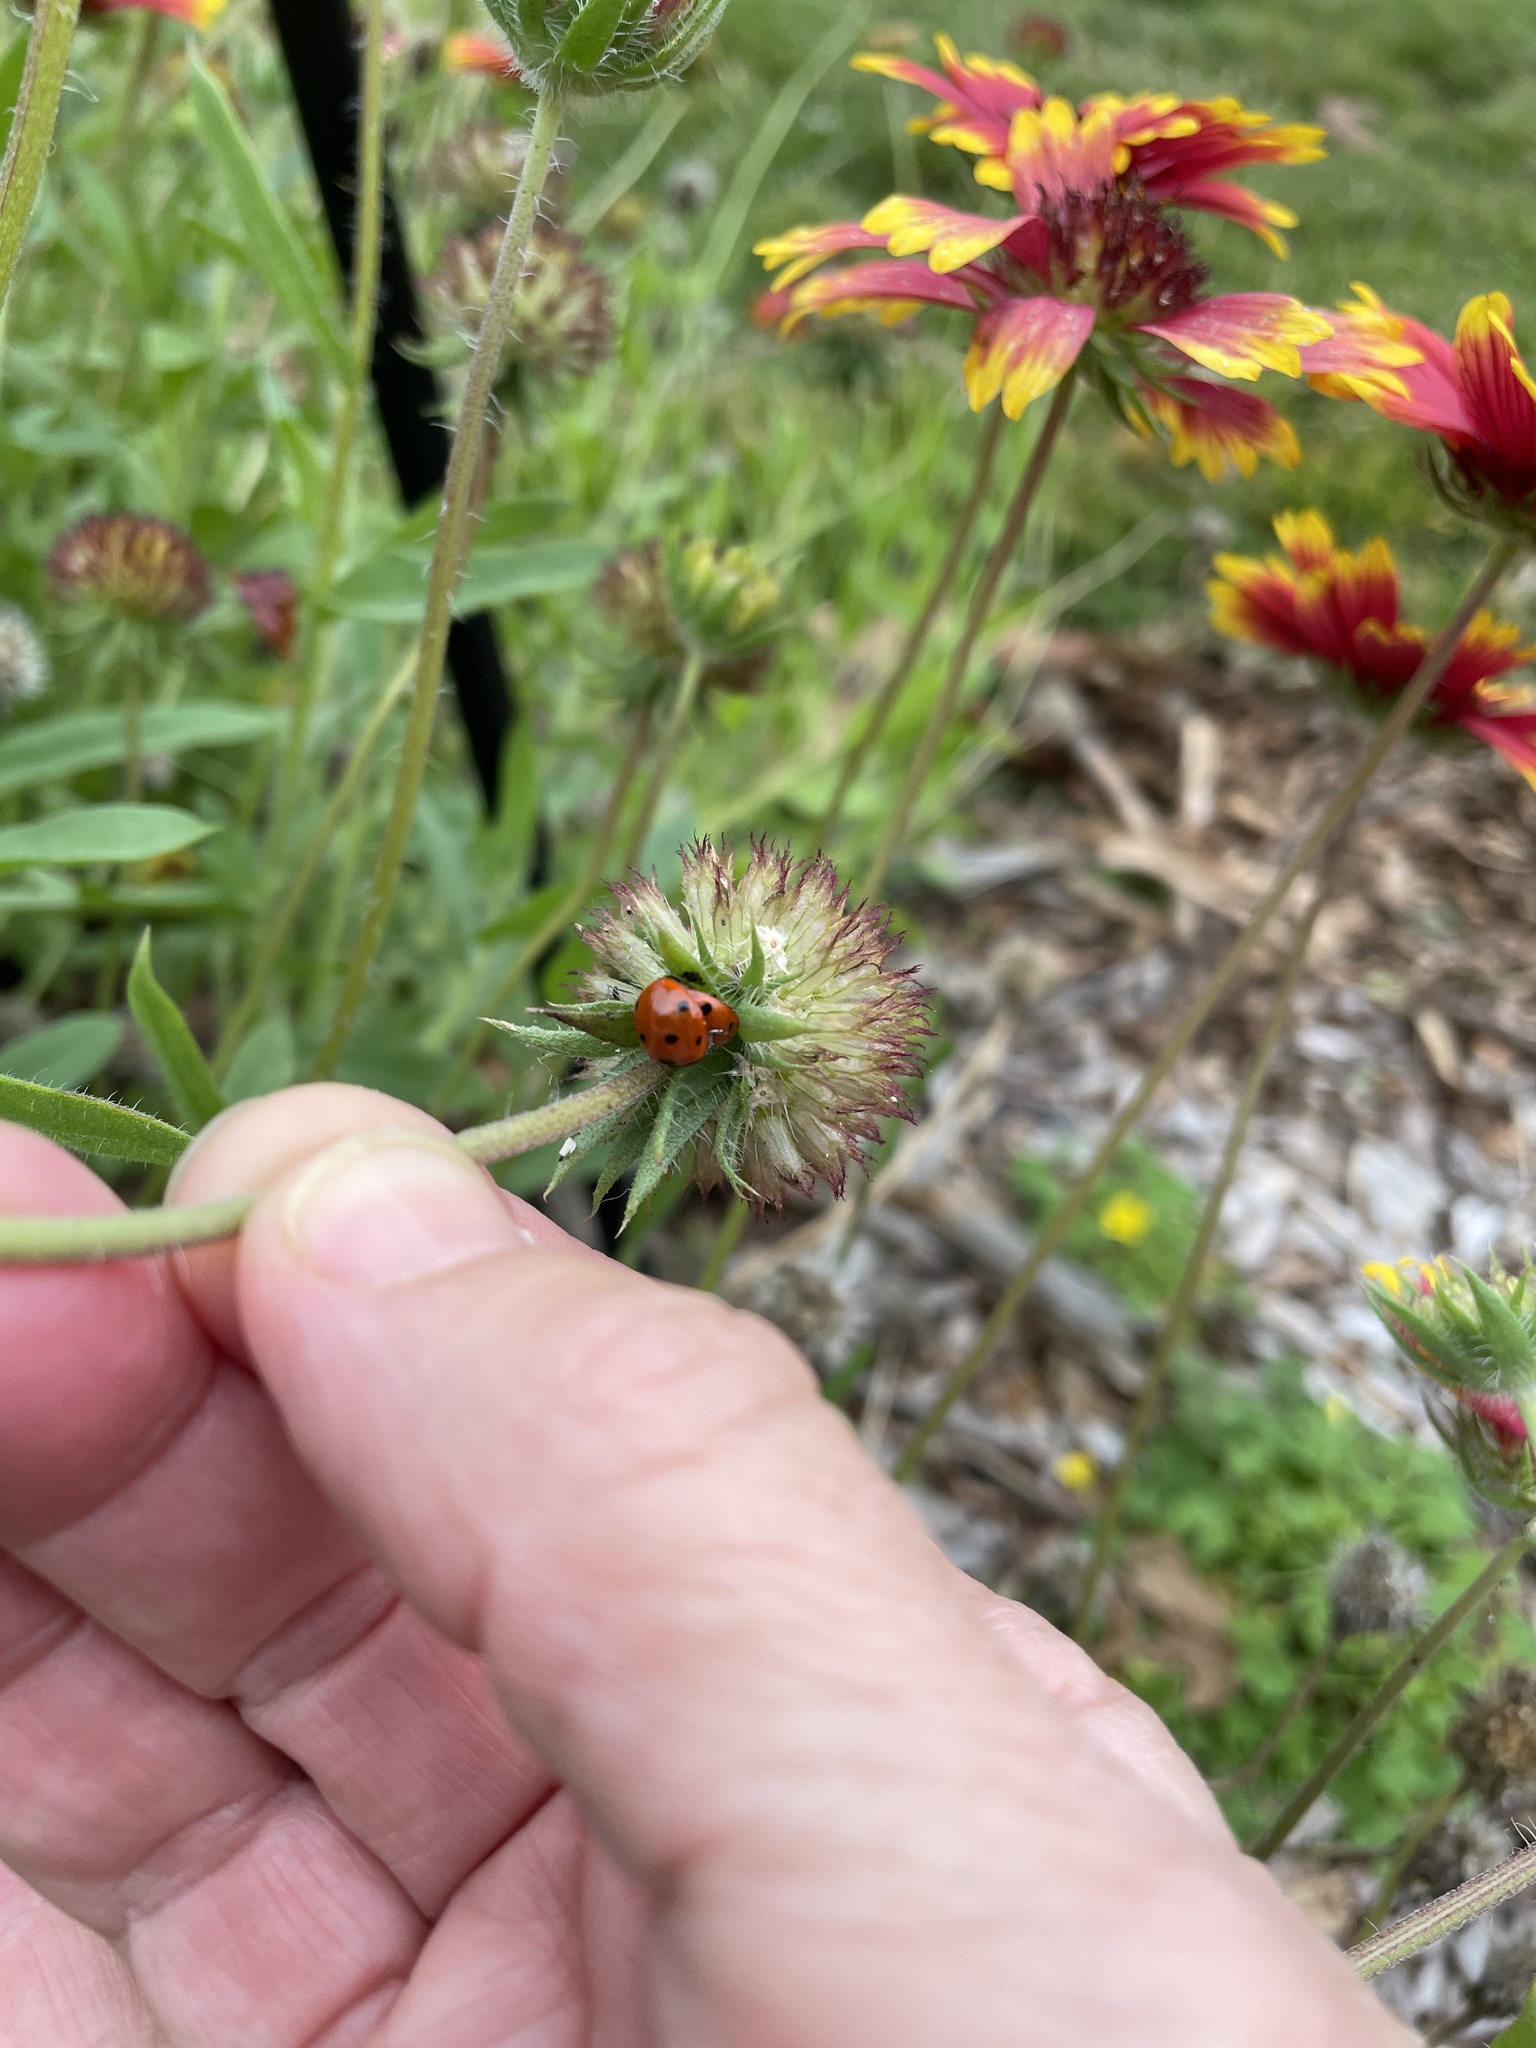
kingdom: Animalia
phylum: Arthropoda
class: Insecta
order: Coleoptera
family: Coccinellidae
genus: Coccinella
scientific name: Coccinella septempunctata
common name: Sevenspotted lady beetle
